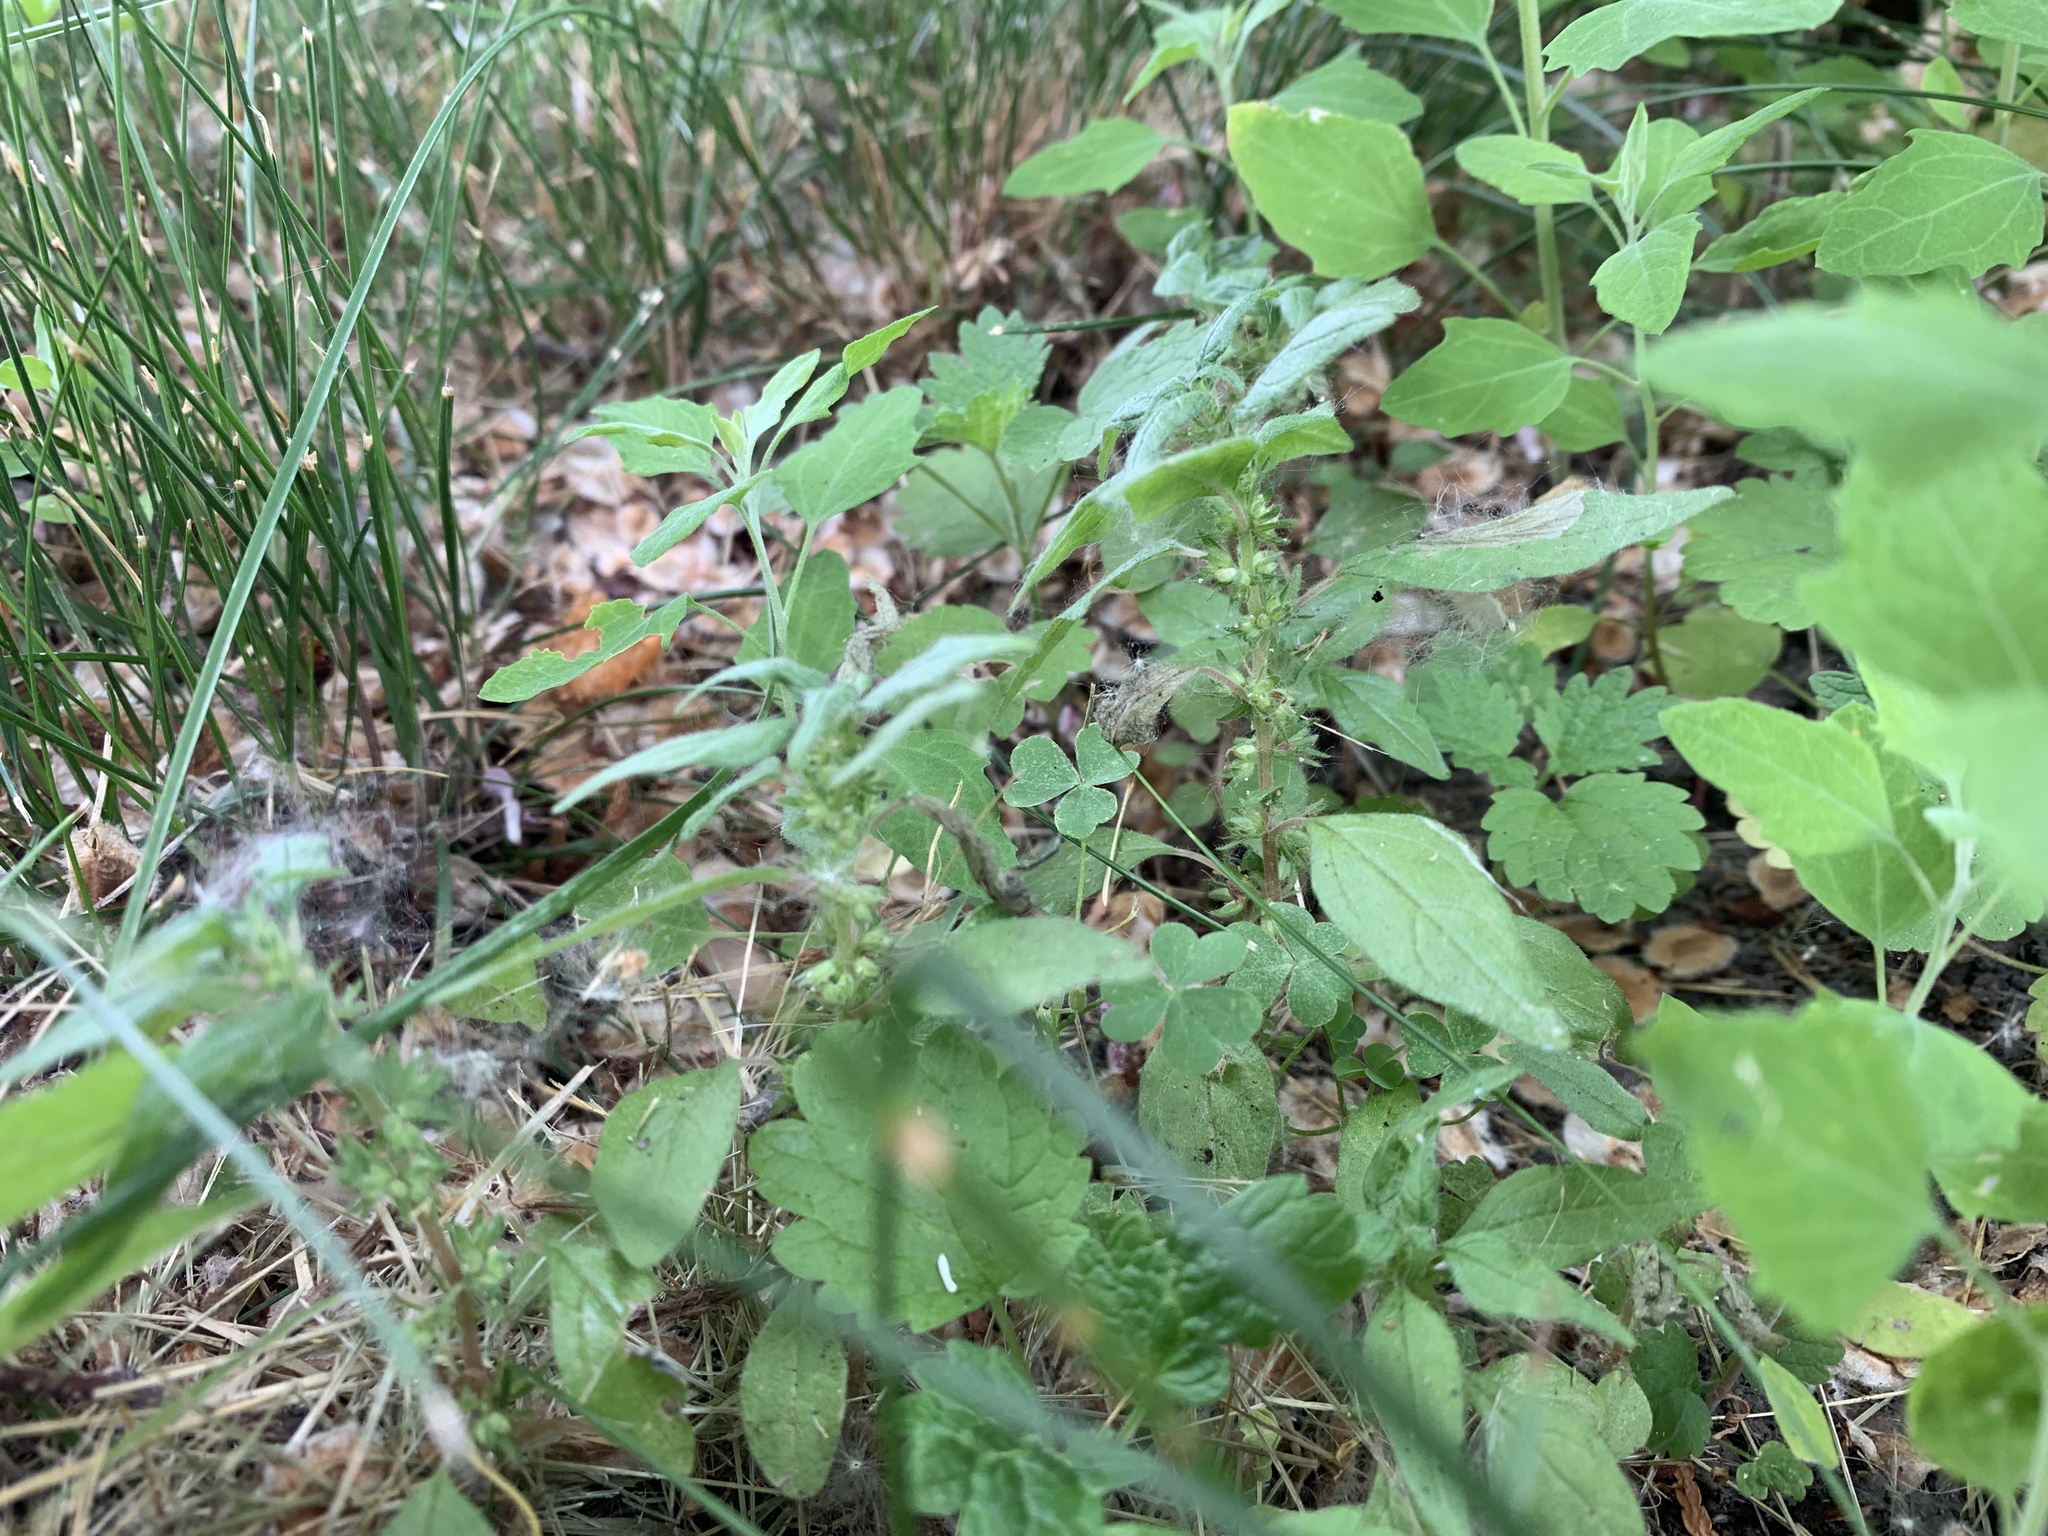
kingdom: Plantae
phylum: Tracheophyta
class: Magnoliopsida
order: Rosales
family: Urticaceae
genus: Parietaria
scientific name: Parietaria pensylvanica
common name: Pennsylvania pellitory
